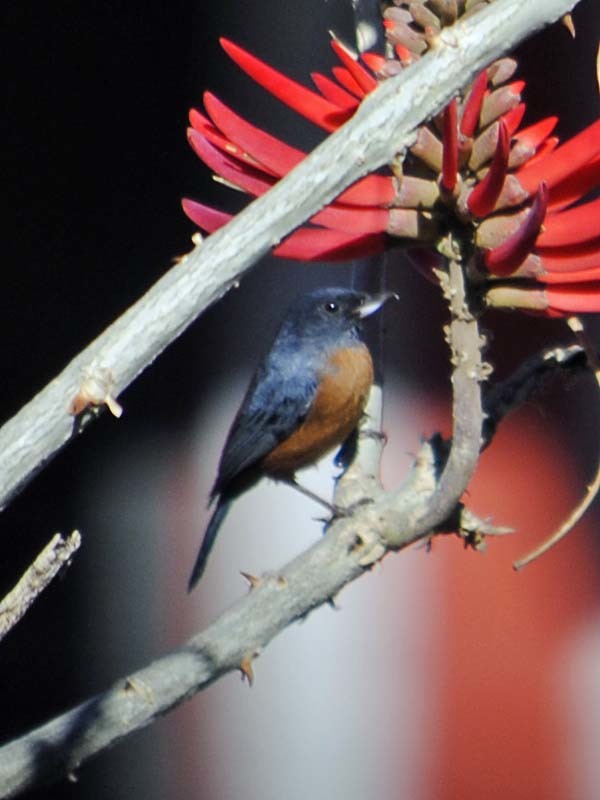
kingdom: Animalia
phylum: Chordata
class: Aves
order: Passeriformes
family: Thraupidae
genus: Diglossa
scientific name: Diglossa baritula
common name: Cinnamon-bellied flowerpiercer
